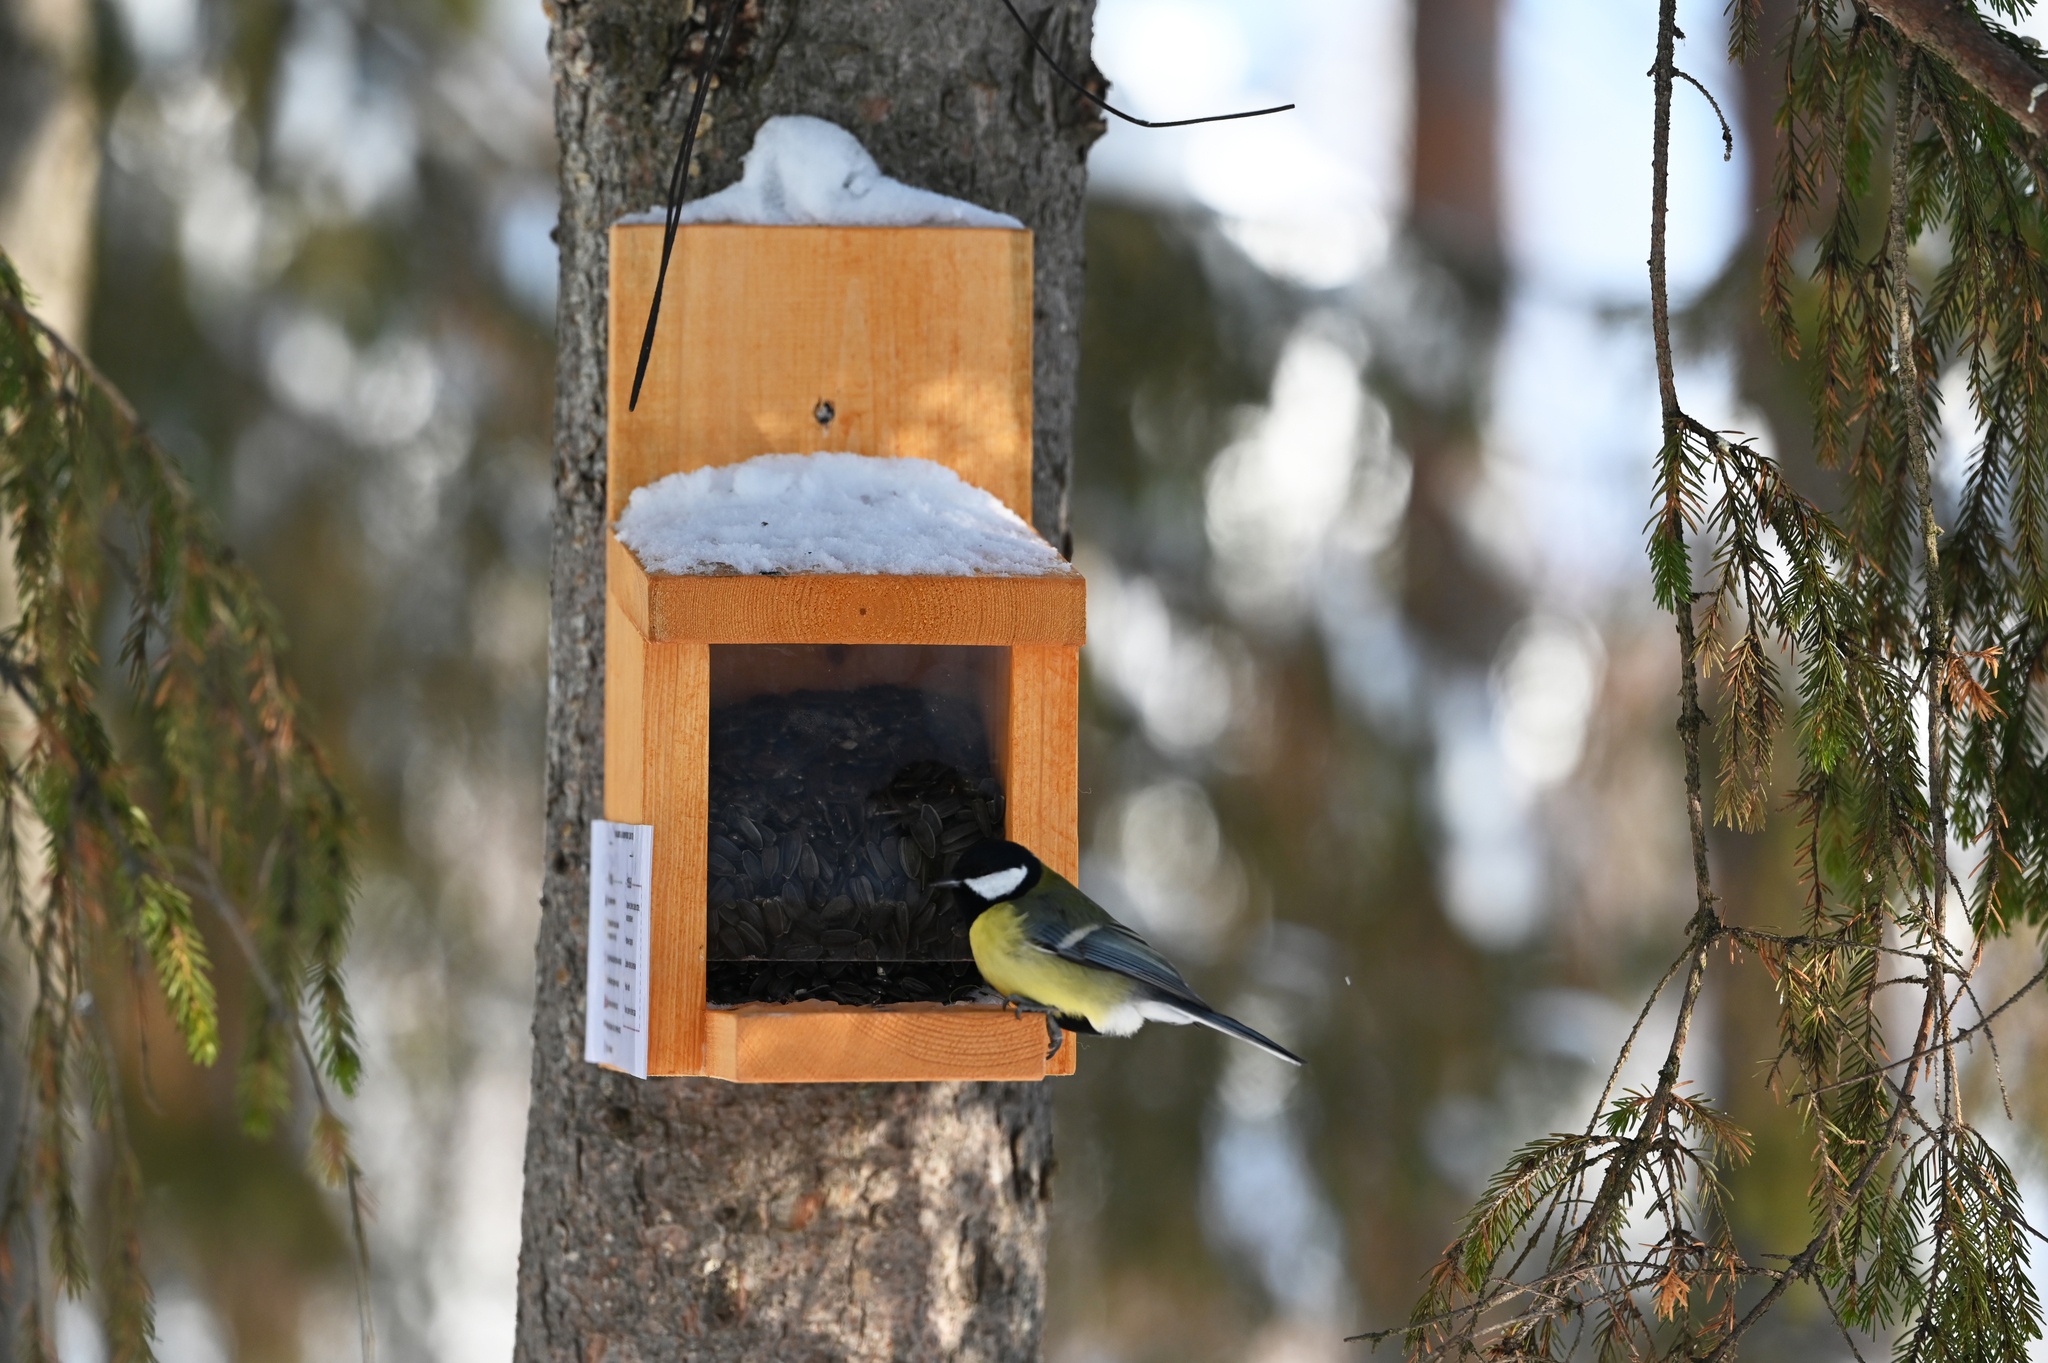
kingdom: Animalia
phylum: Chordata
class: Aves
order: Passeriformes
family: Paridae
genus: Parus
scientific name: Parus major
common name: Great tit
